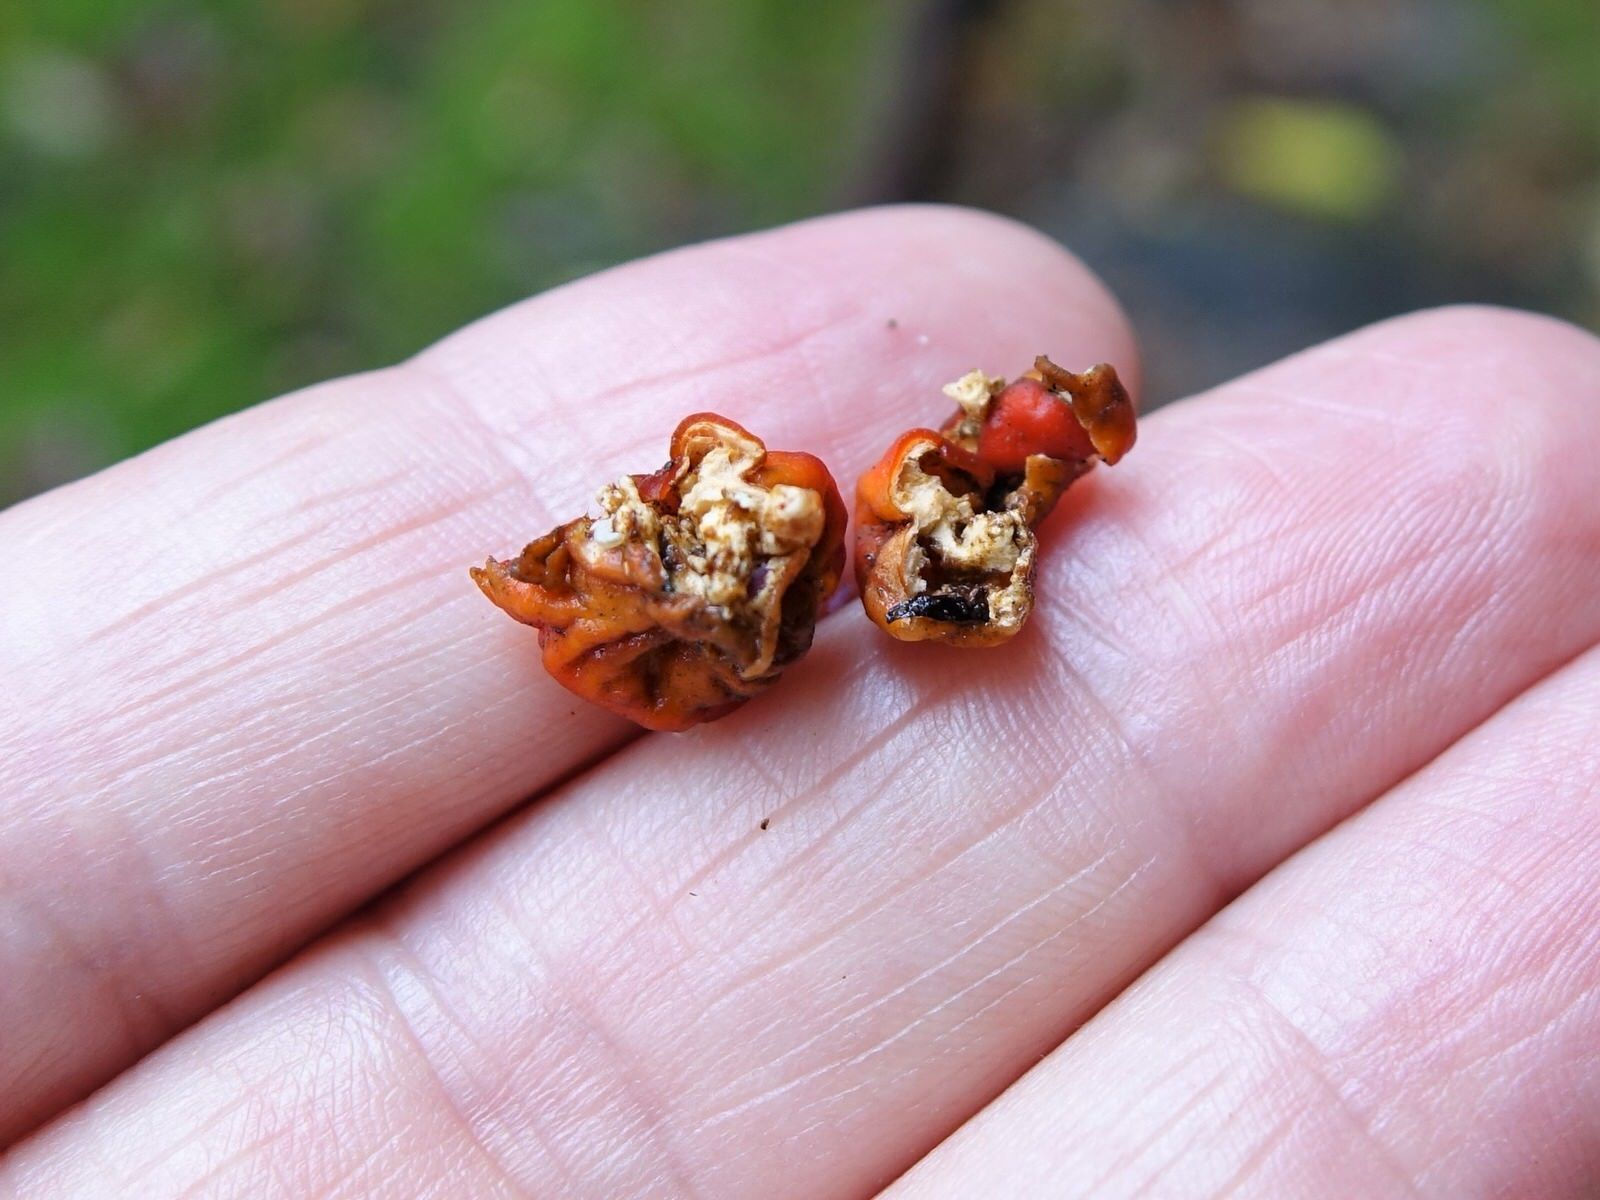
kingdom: Fungi
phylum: Ascomycota
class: Pezizomycetes
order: Pezizales
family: Pyronemataceae
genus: Paurocotylis
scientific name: Paurocotylis pila
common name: Scarlet berry truffle
